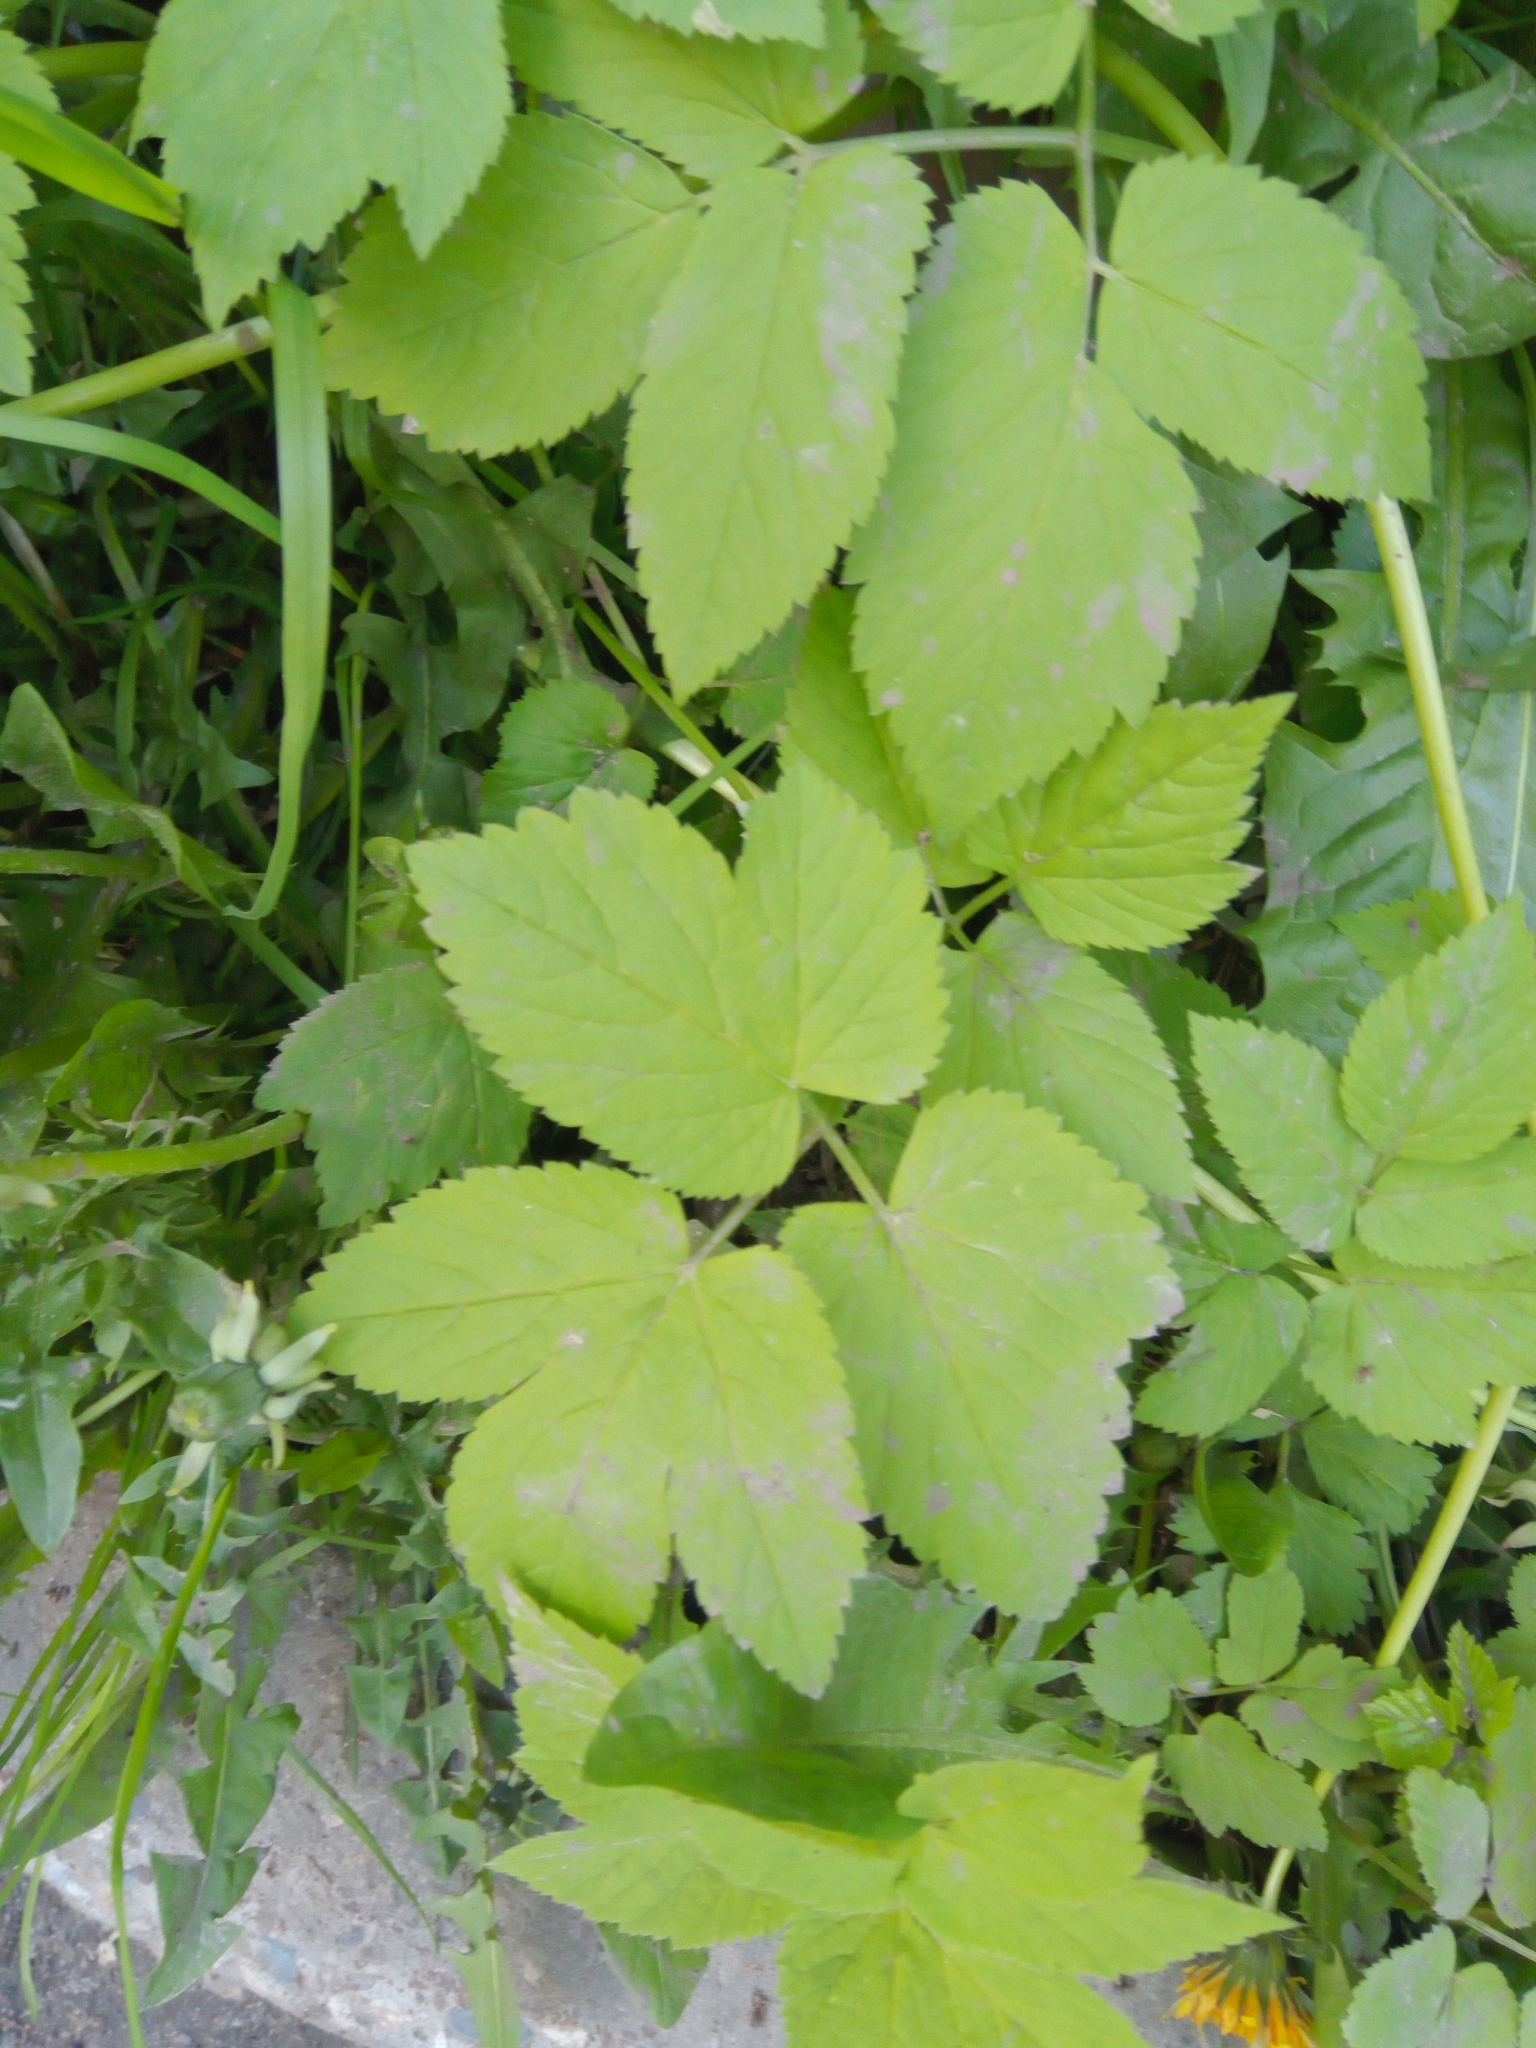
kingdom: Plantae
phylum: Tracheophyta
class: Magnoliopsida
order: Apiales
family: Apiaceae
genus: Aegopodium
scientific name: Aegopodium podagraria
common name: Ground-elder
